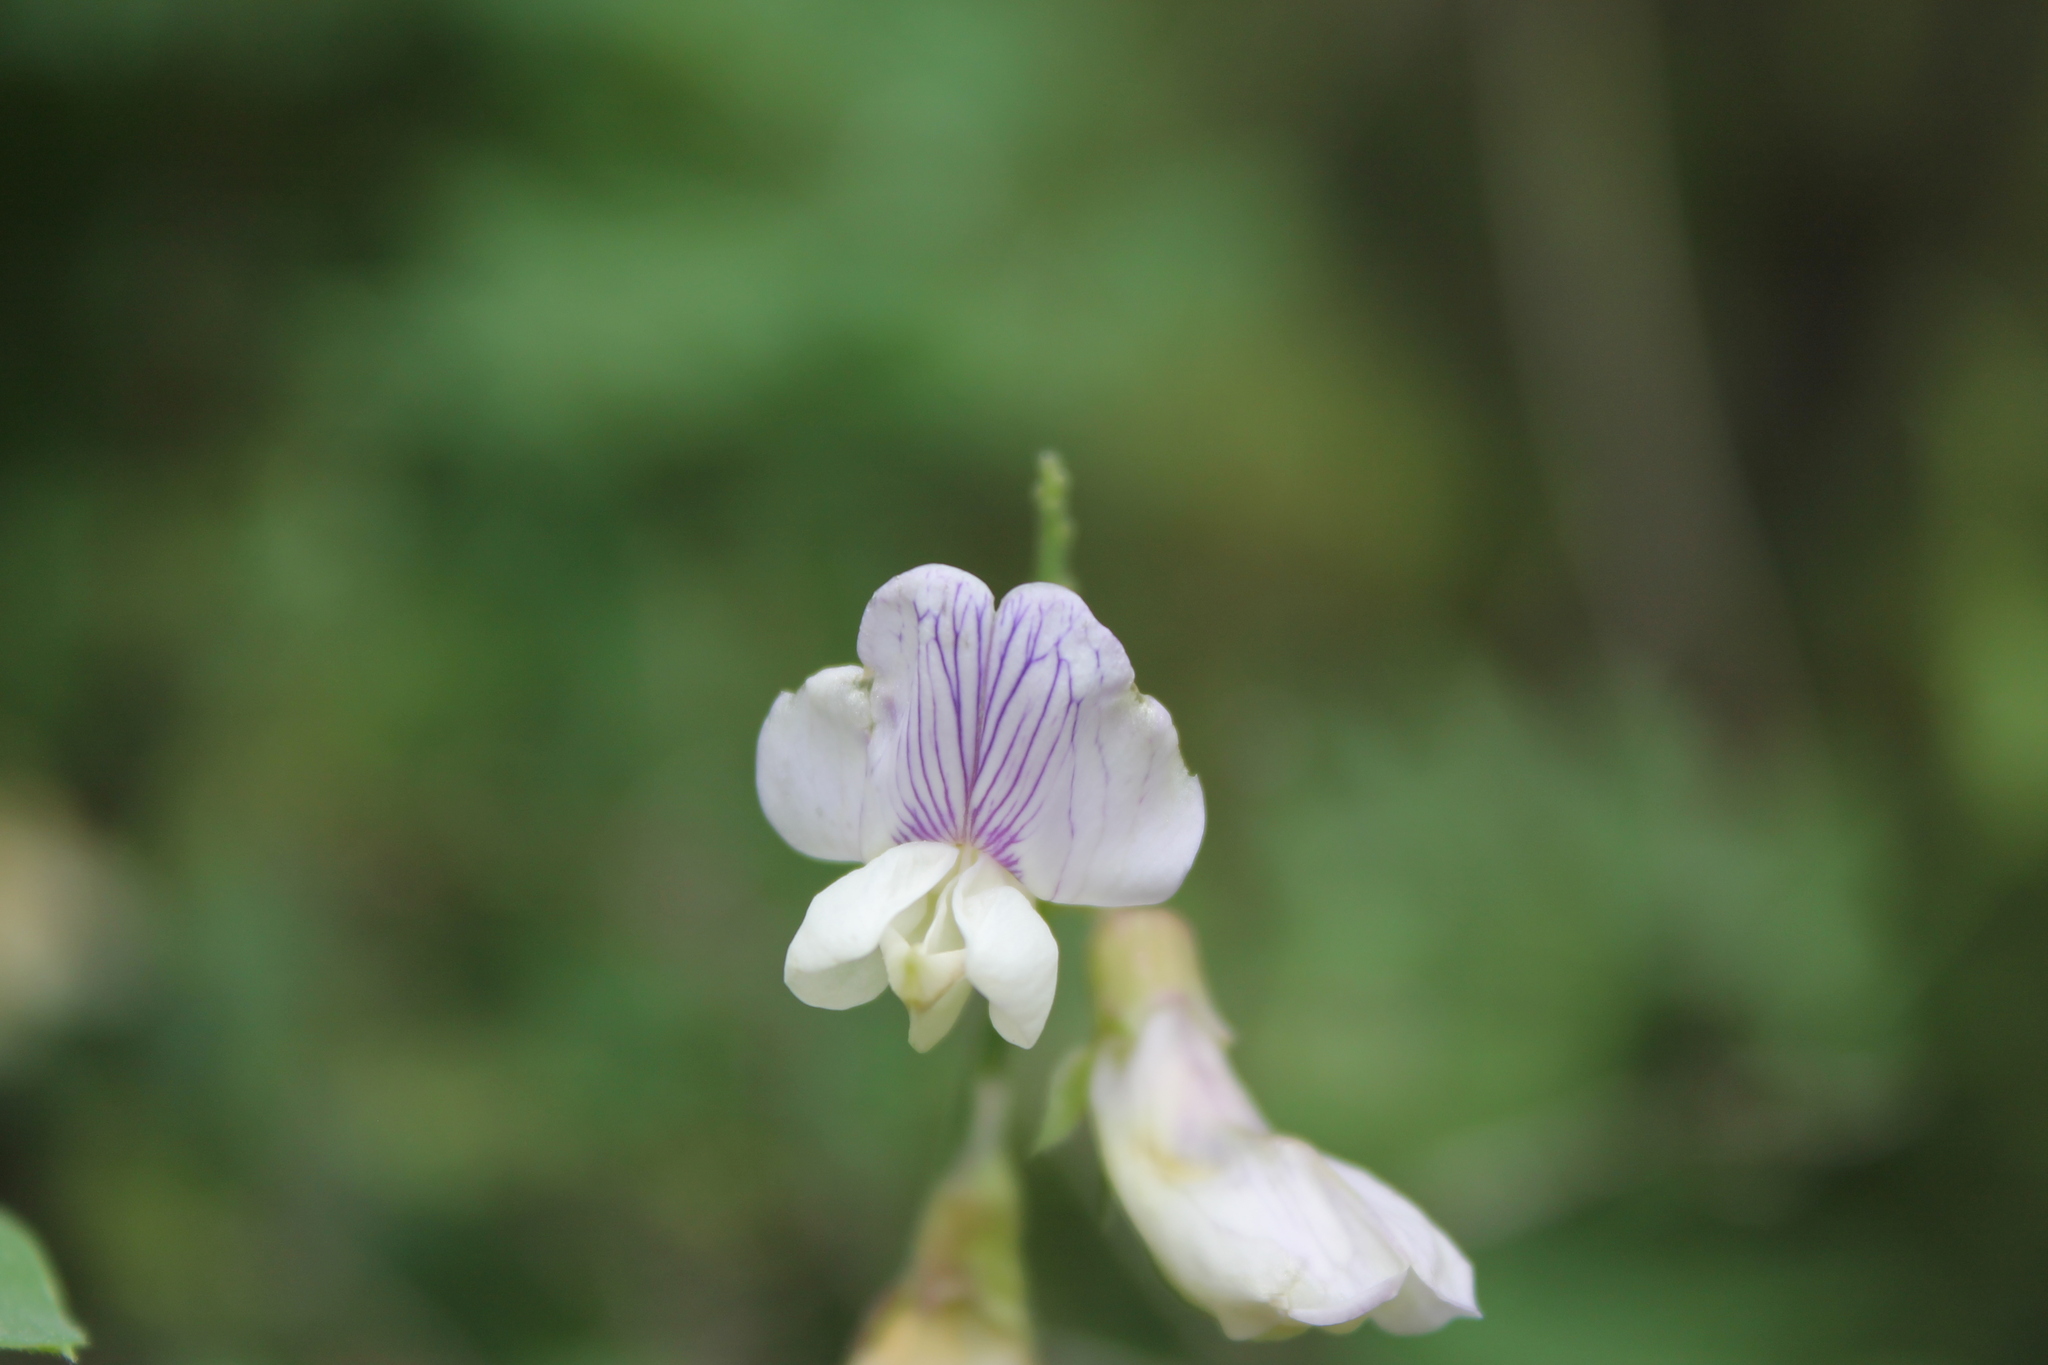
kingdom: Plantae
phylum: Tracheophyta
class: Magnoliopsida
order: Fabales
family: Fabaceae
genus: Lathyrus
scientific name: Lathyrus vestitus
